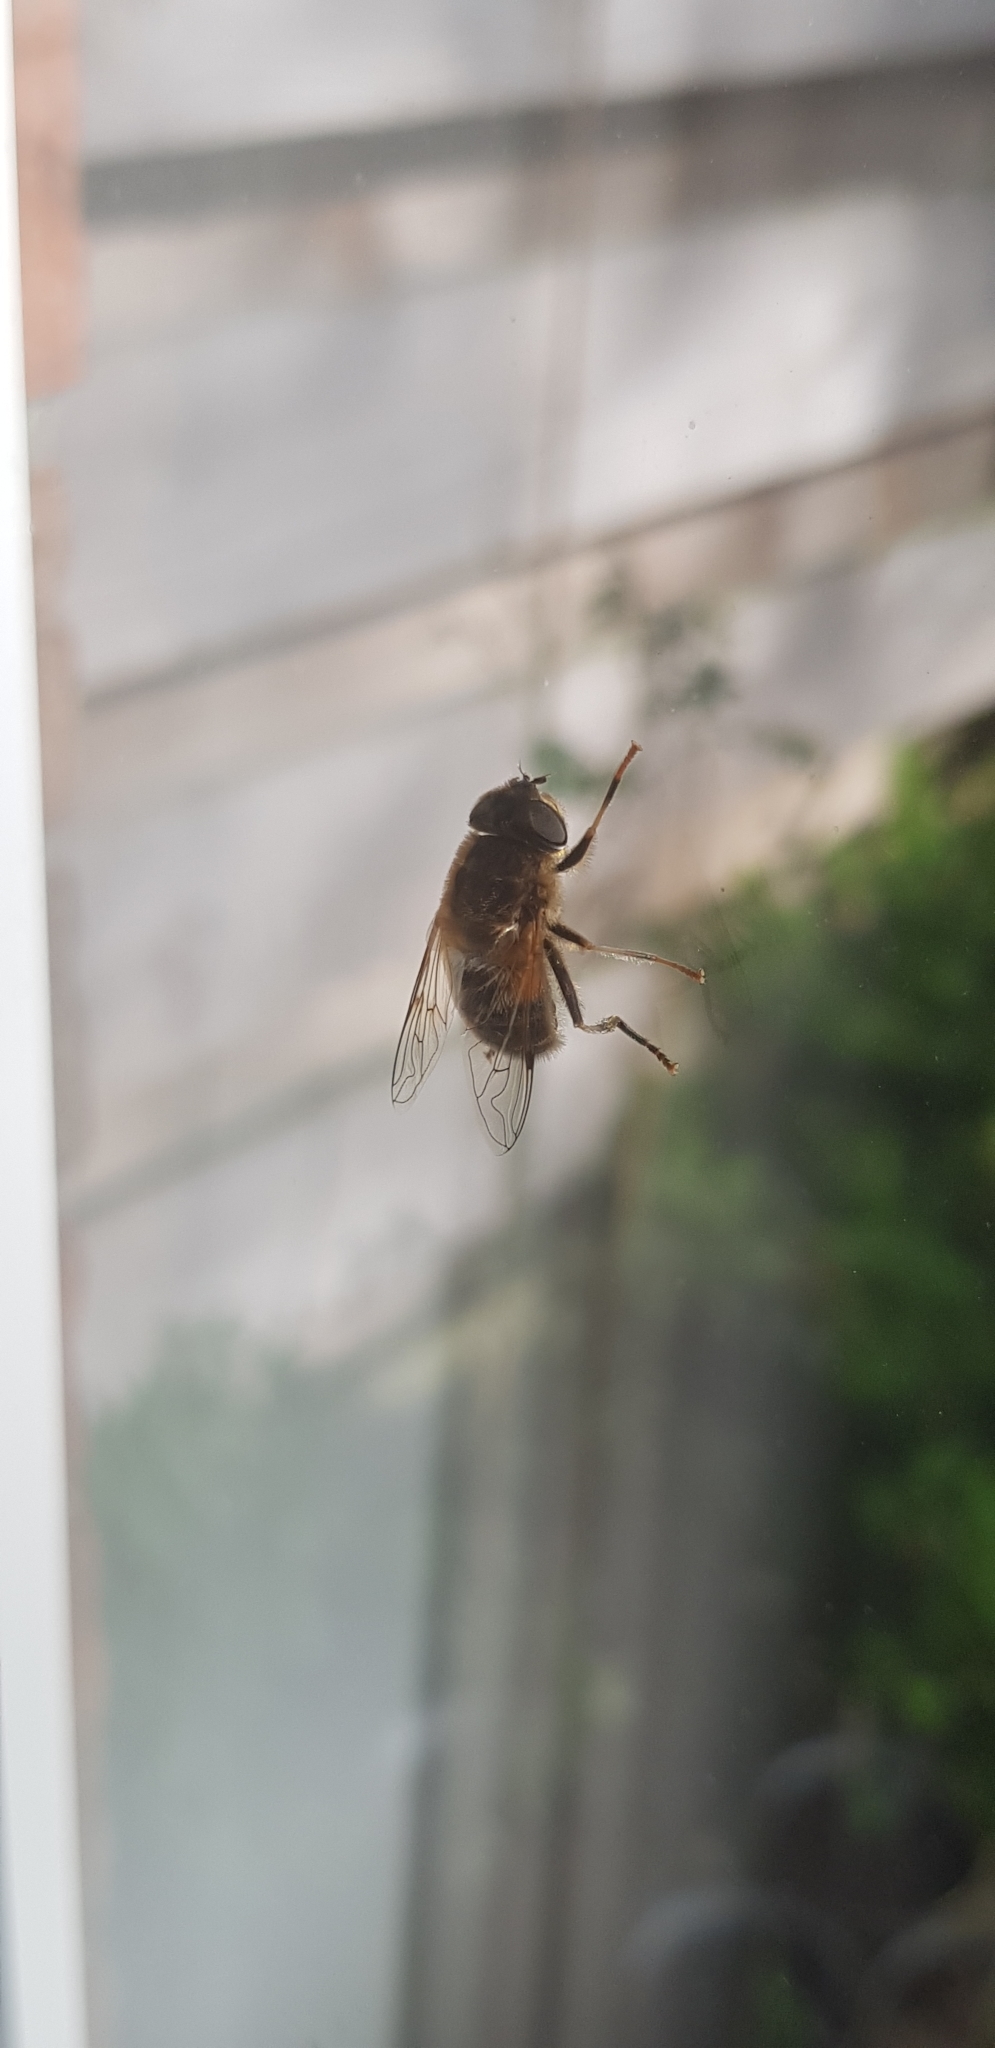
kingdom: Animalia
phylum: Arthropoda
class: Insecta
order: Diptera
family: Syrphidae
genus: Eristalis
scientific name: Eristalis pertinax
